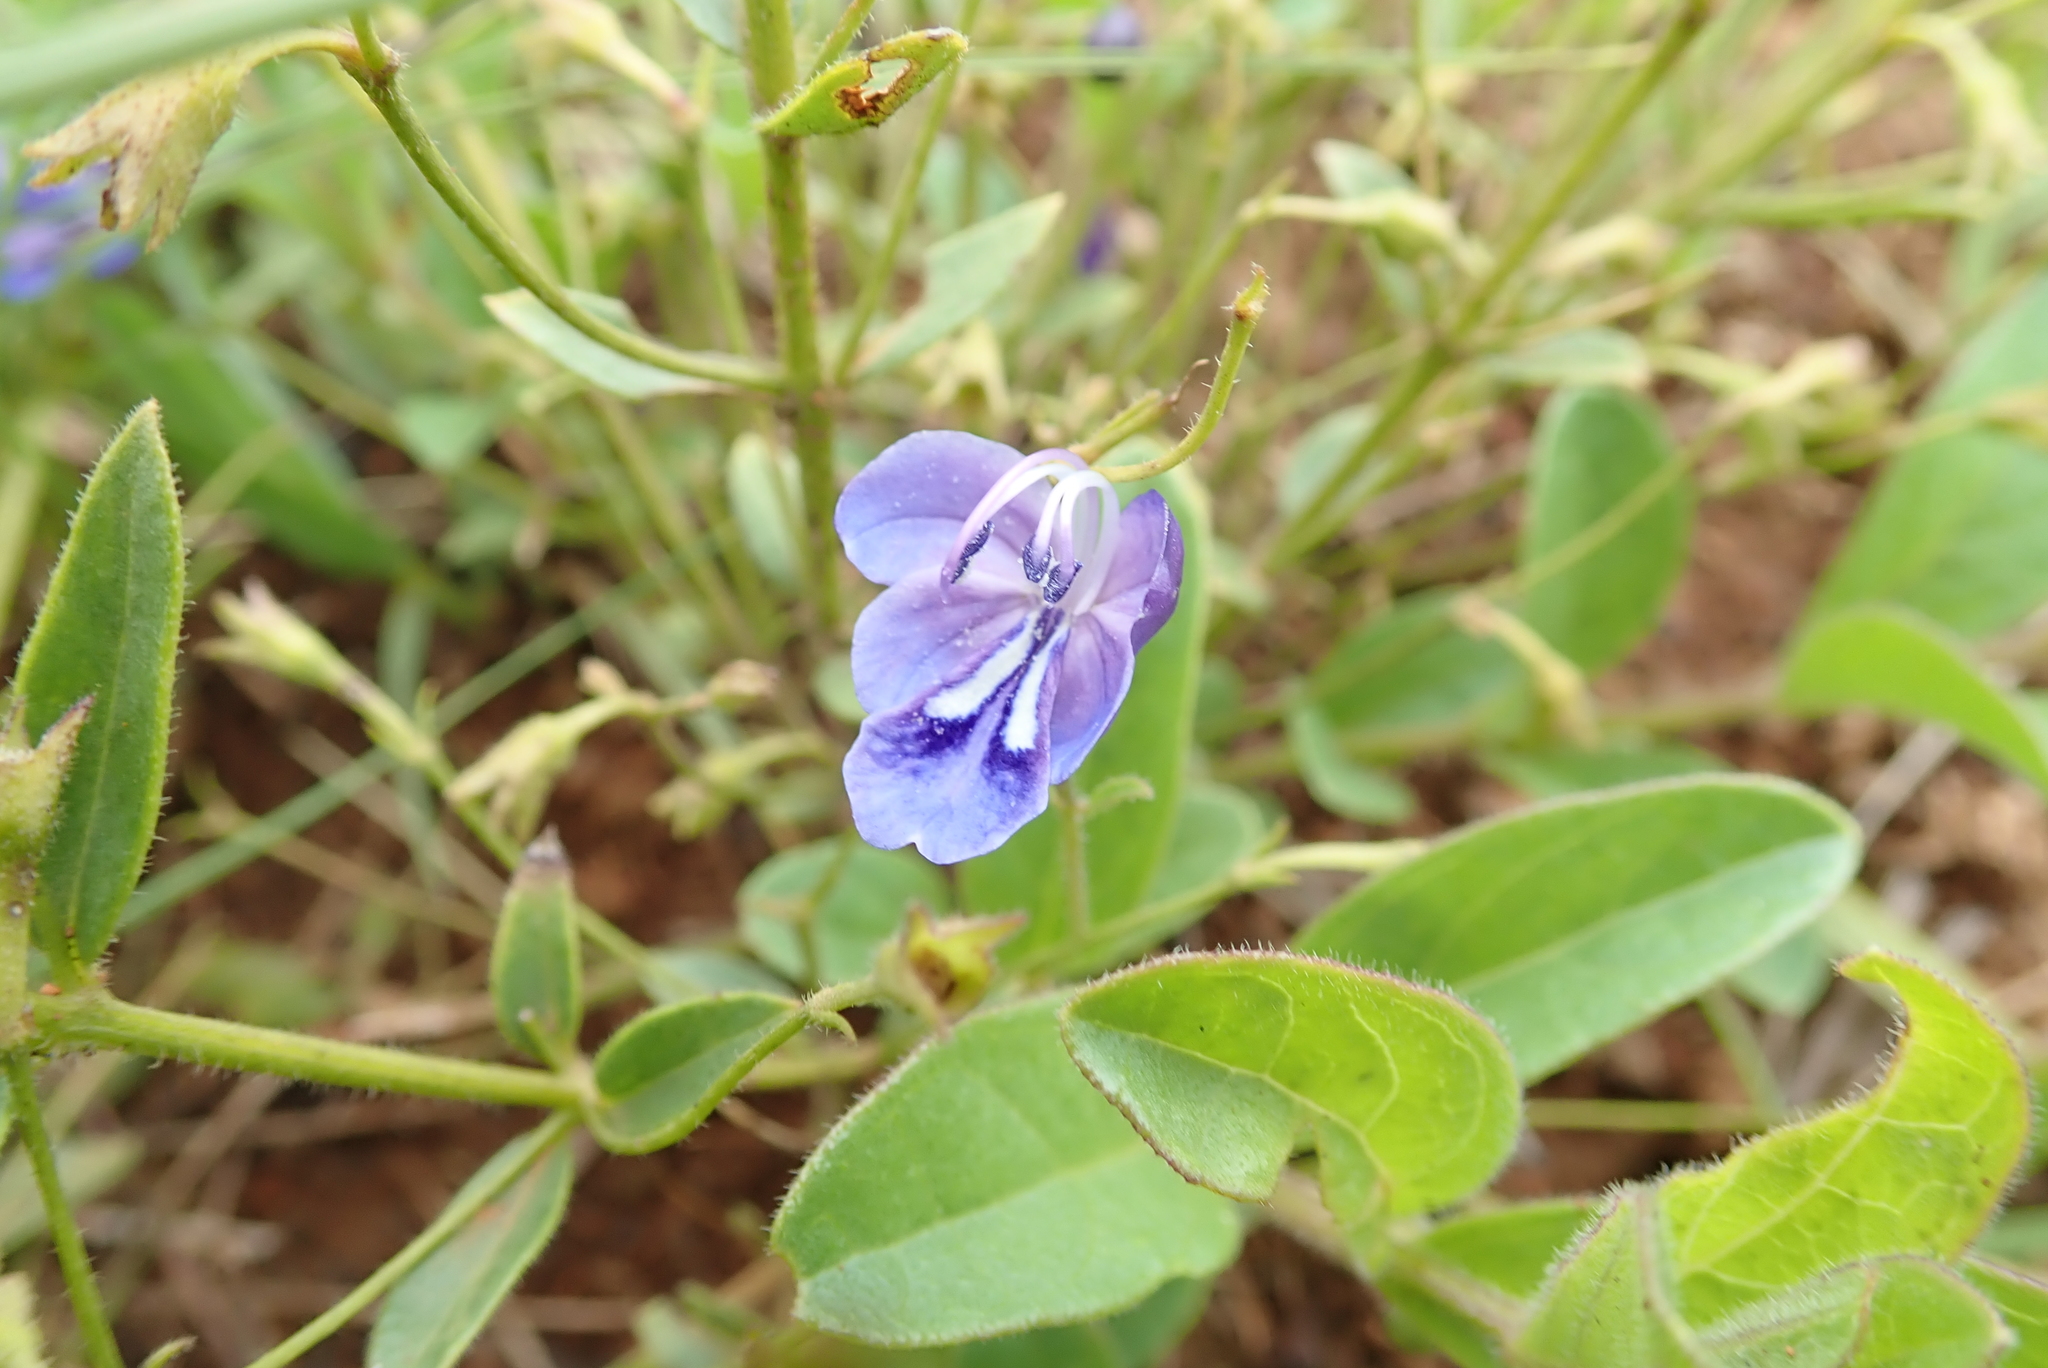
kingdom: Plantae
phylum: Tracheophyta
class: Magnoliopsida
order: Lamiales
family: Lamiaceae
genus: Rotheca
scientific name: Rotheca hirsuta
